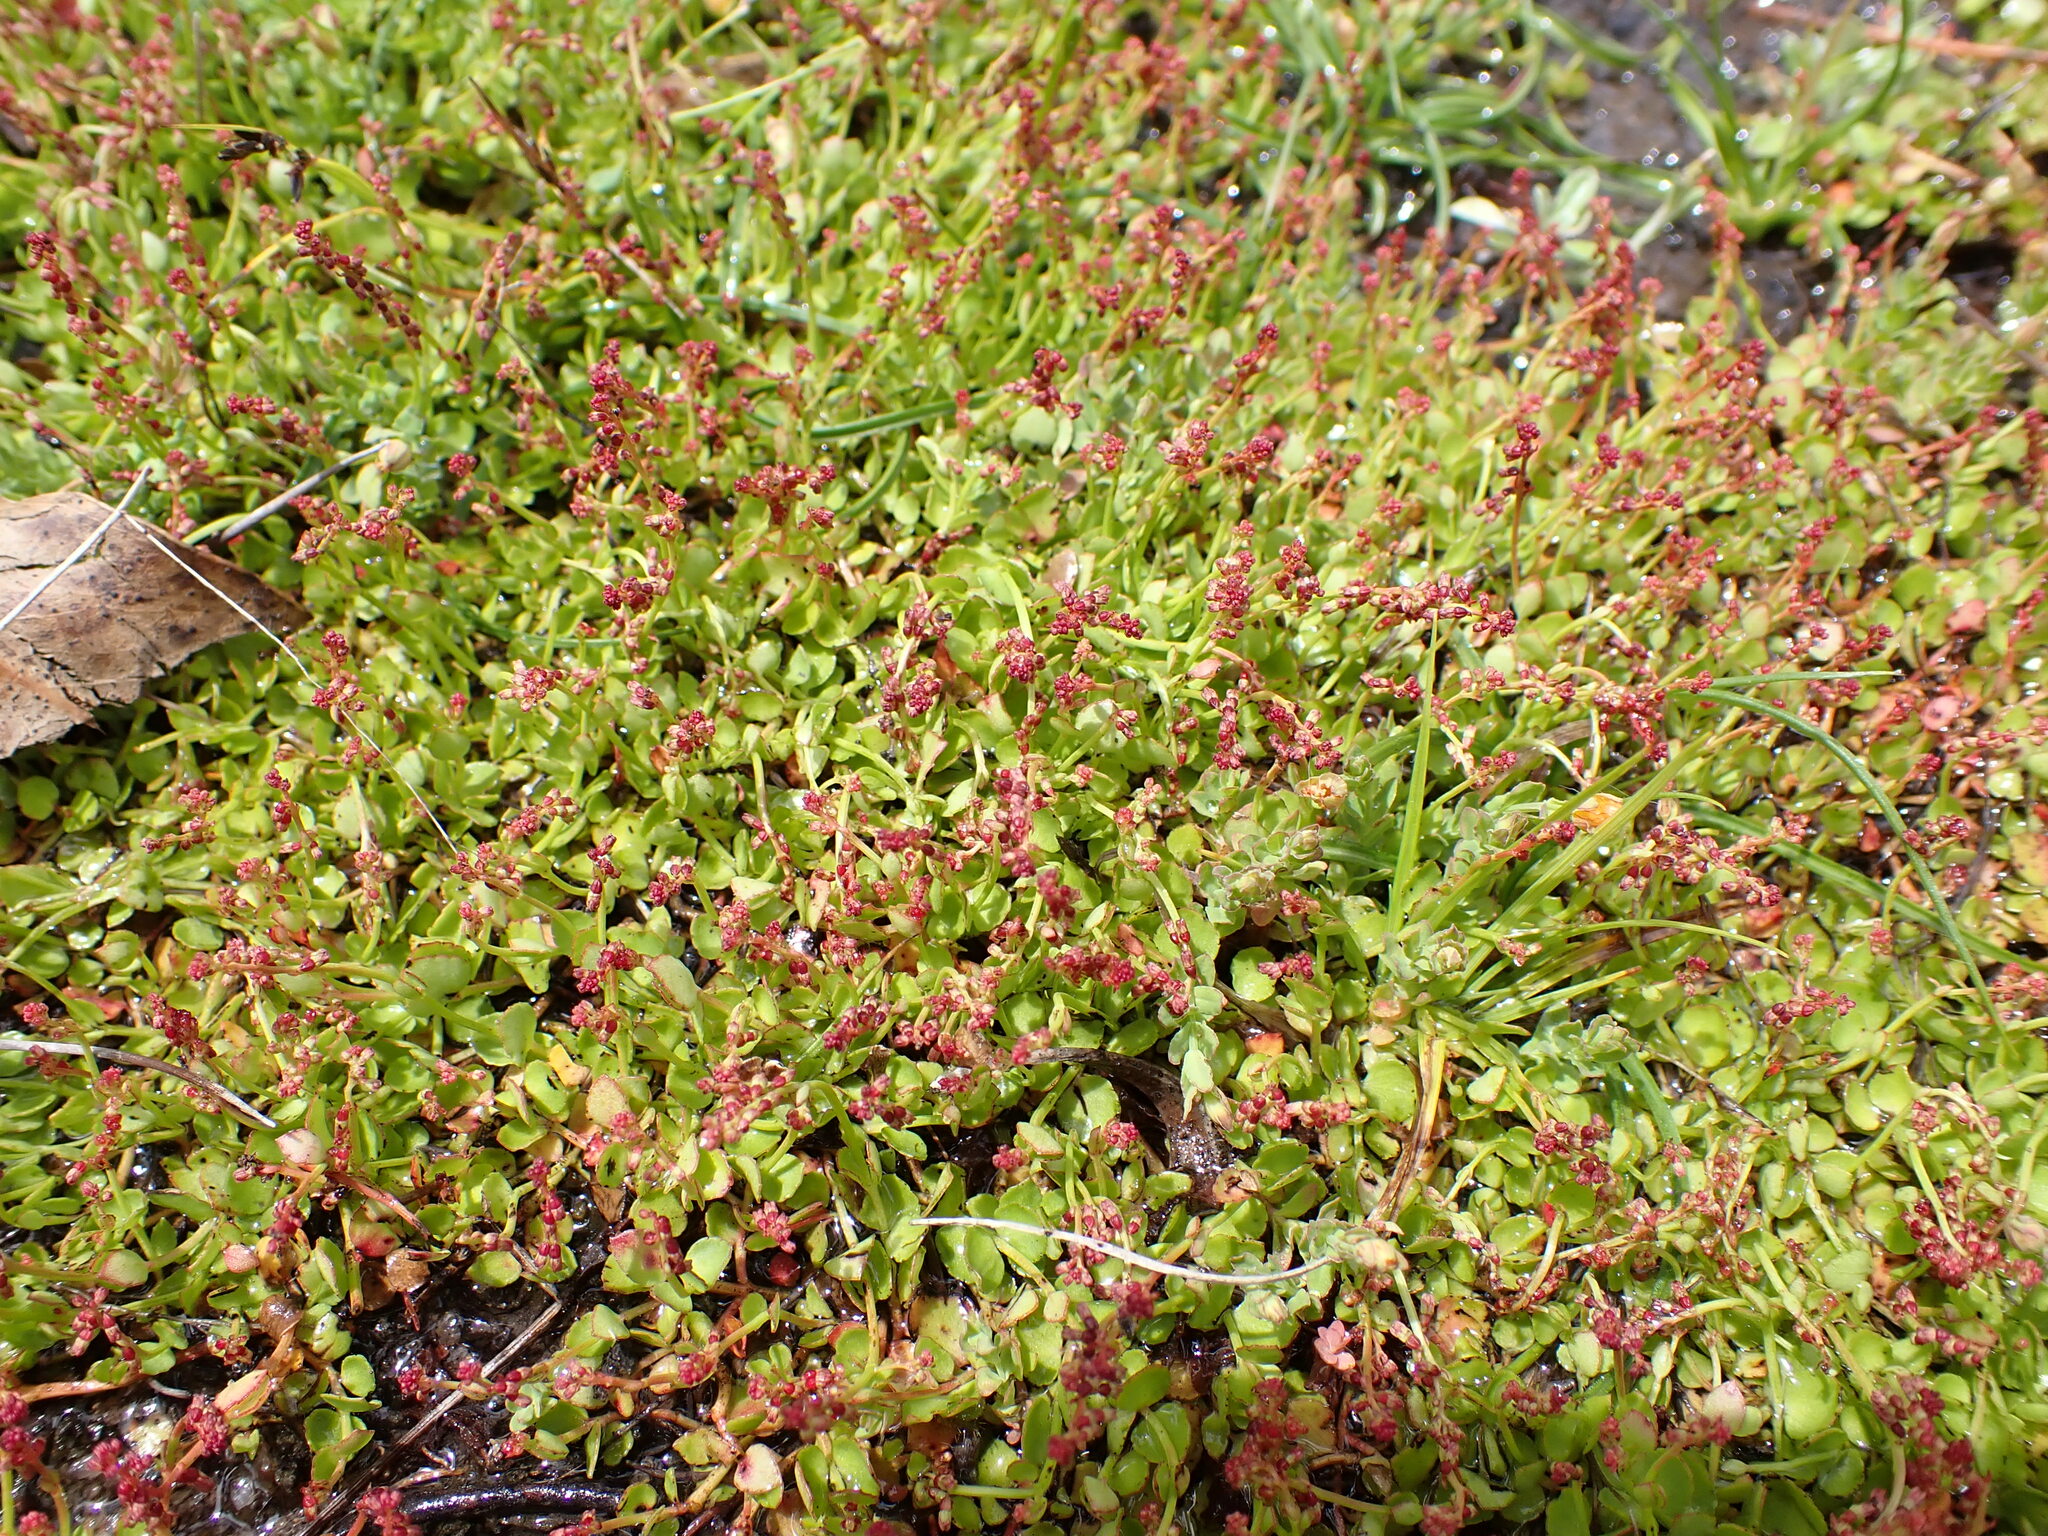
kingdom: Plantae
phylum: Tracheophyta
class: Magnoliopsida
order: Saxifragales
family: Haloragaceae
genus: Gonocarpus
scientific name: Gonocarpus micranthus
